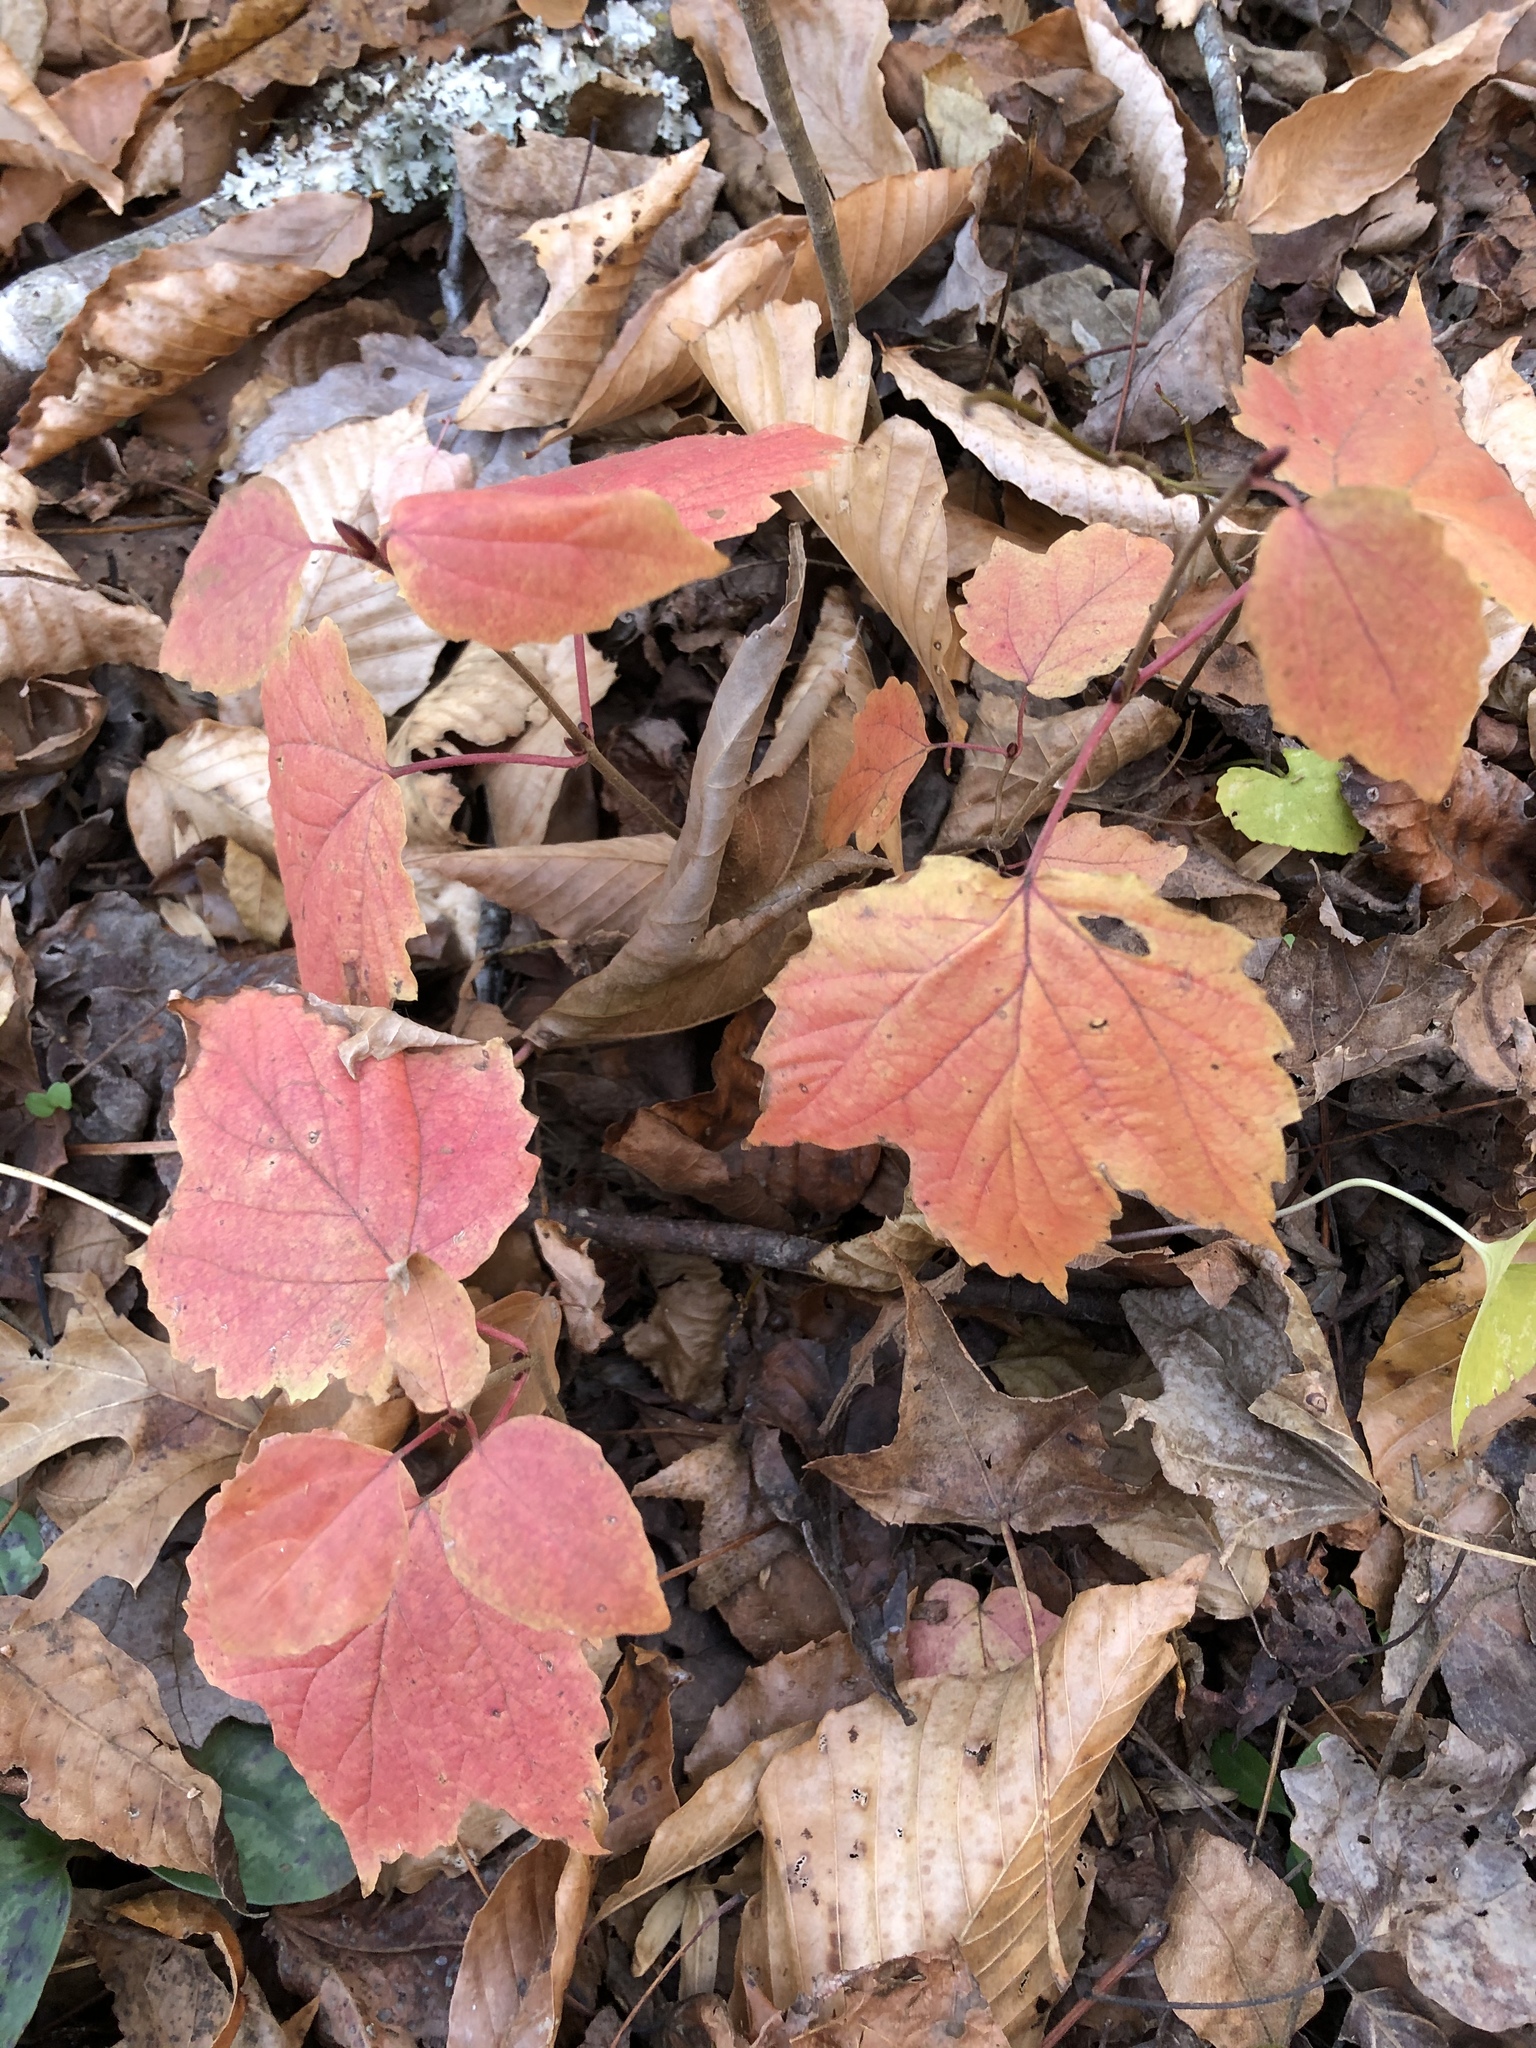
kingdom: Plantae
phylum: Tracheophyta
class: Magnoliopsida
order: Dipsacales
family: Viburnaceae
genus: Viburnum
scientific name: Viburnum acerifolium
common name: Dockmackie
